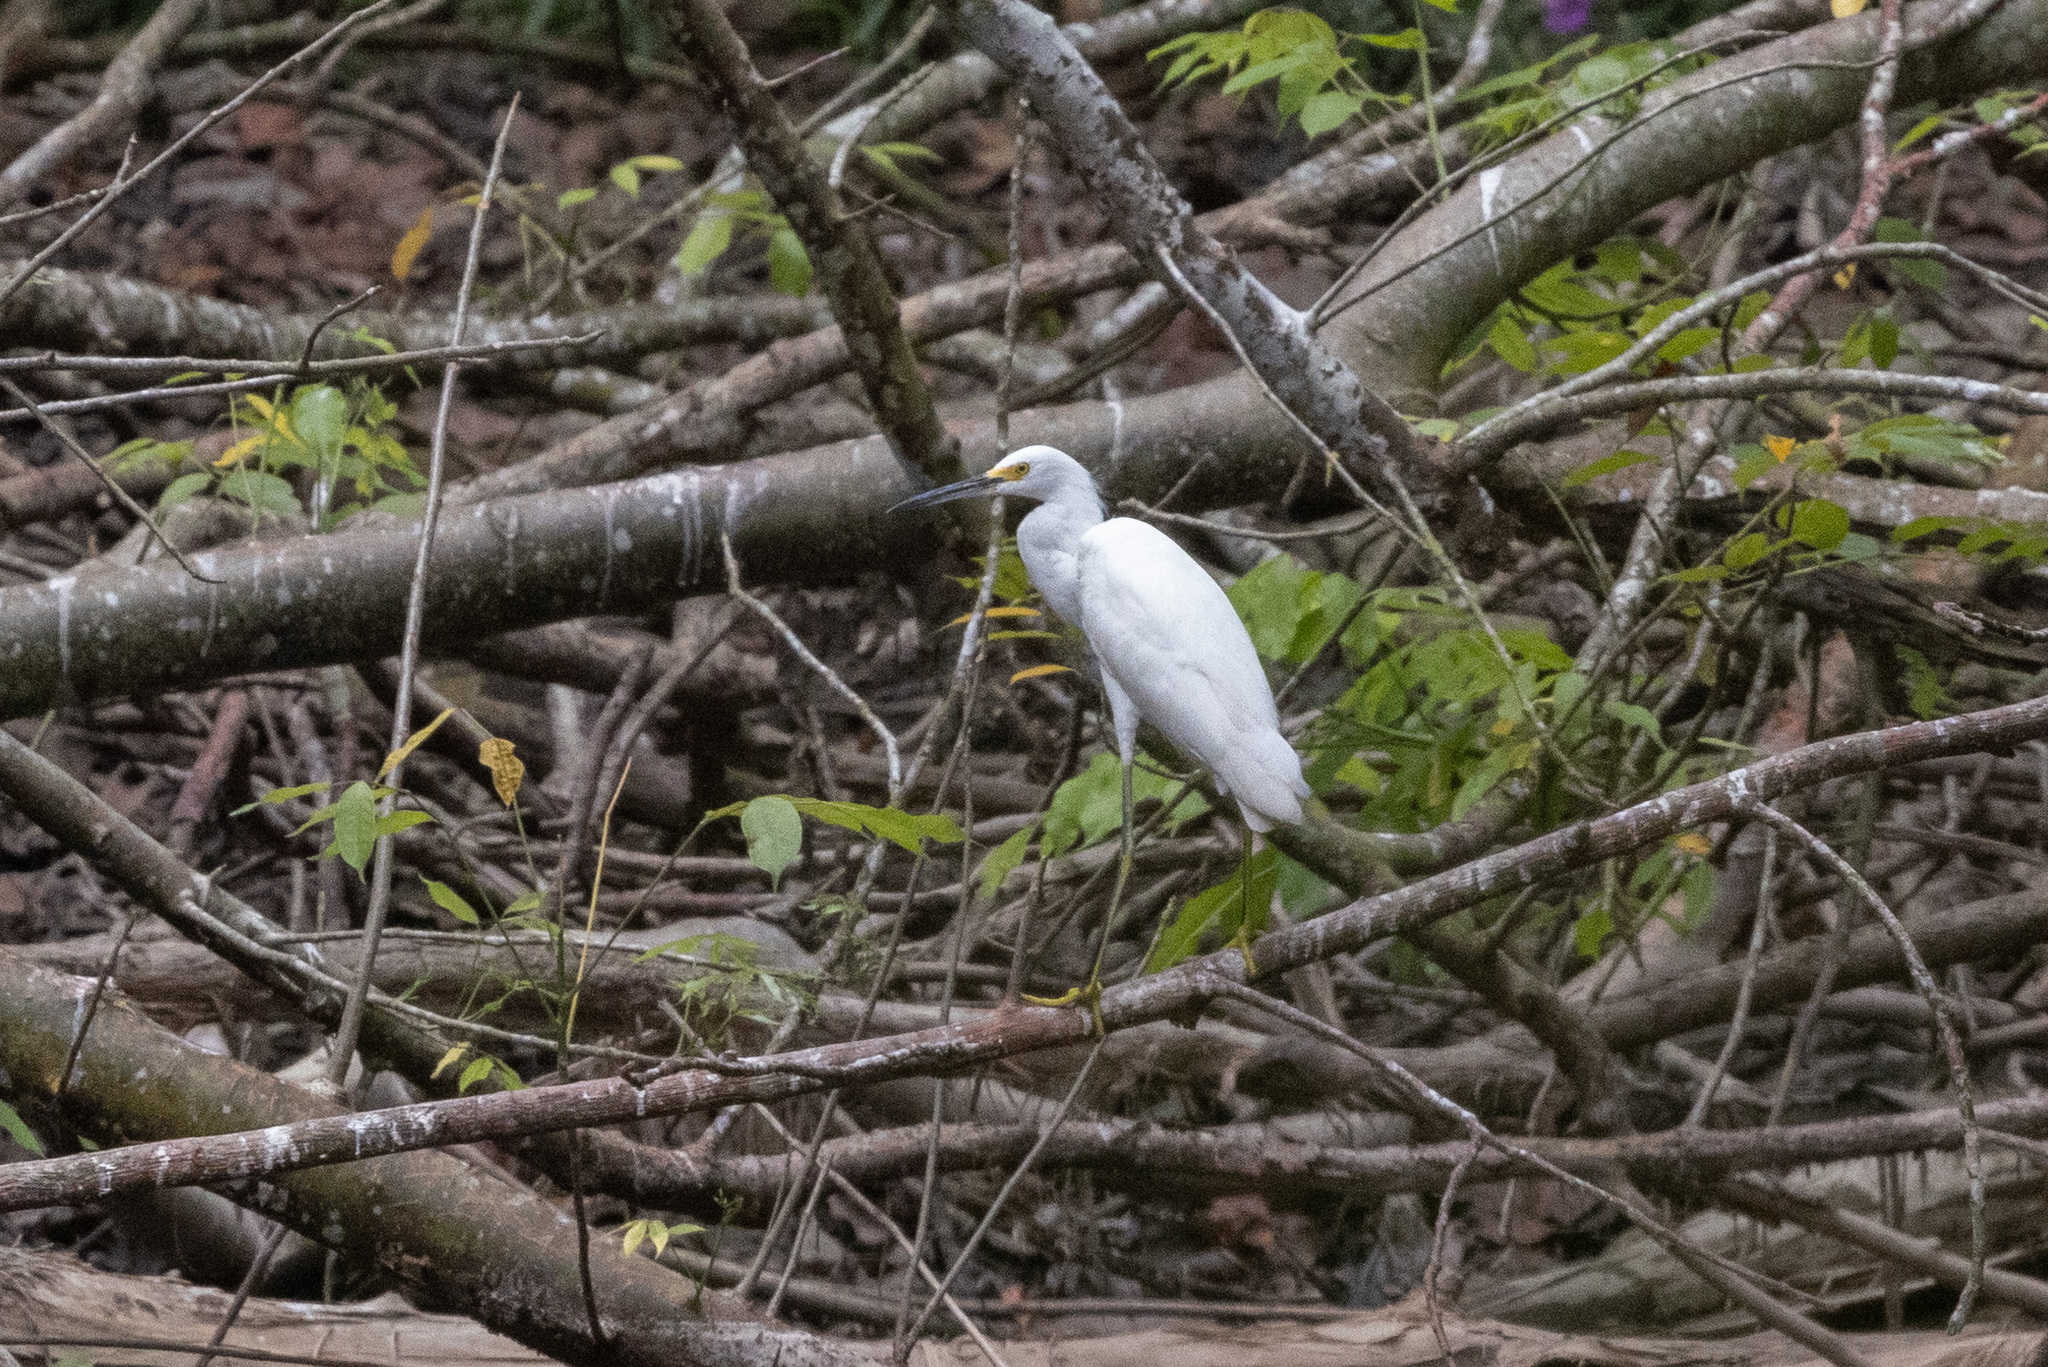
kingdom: Animalia
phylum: Chordata
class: Aves
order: Pelecaniformes
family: Ardeidae
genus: Egretta
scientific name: Egretta thula
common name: Snowy egret
